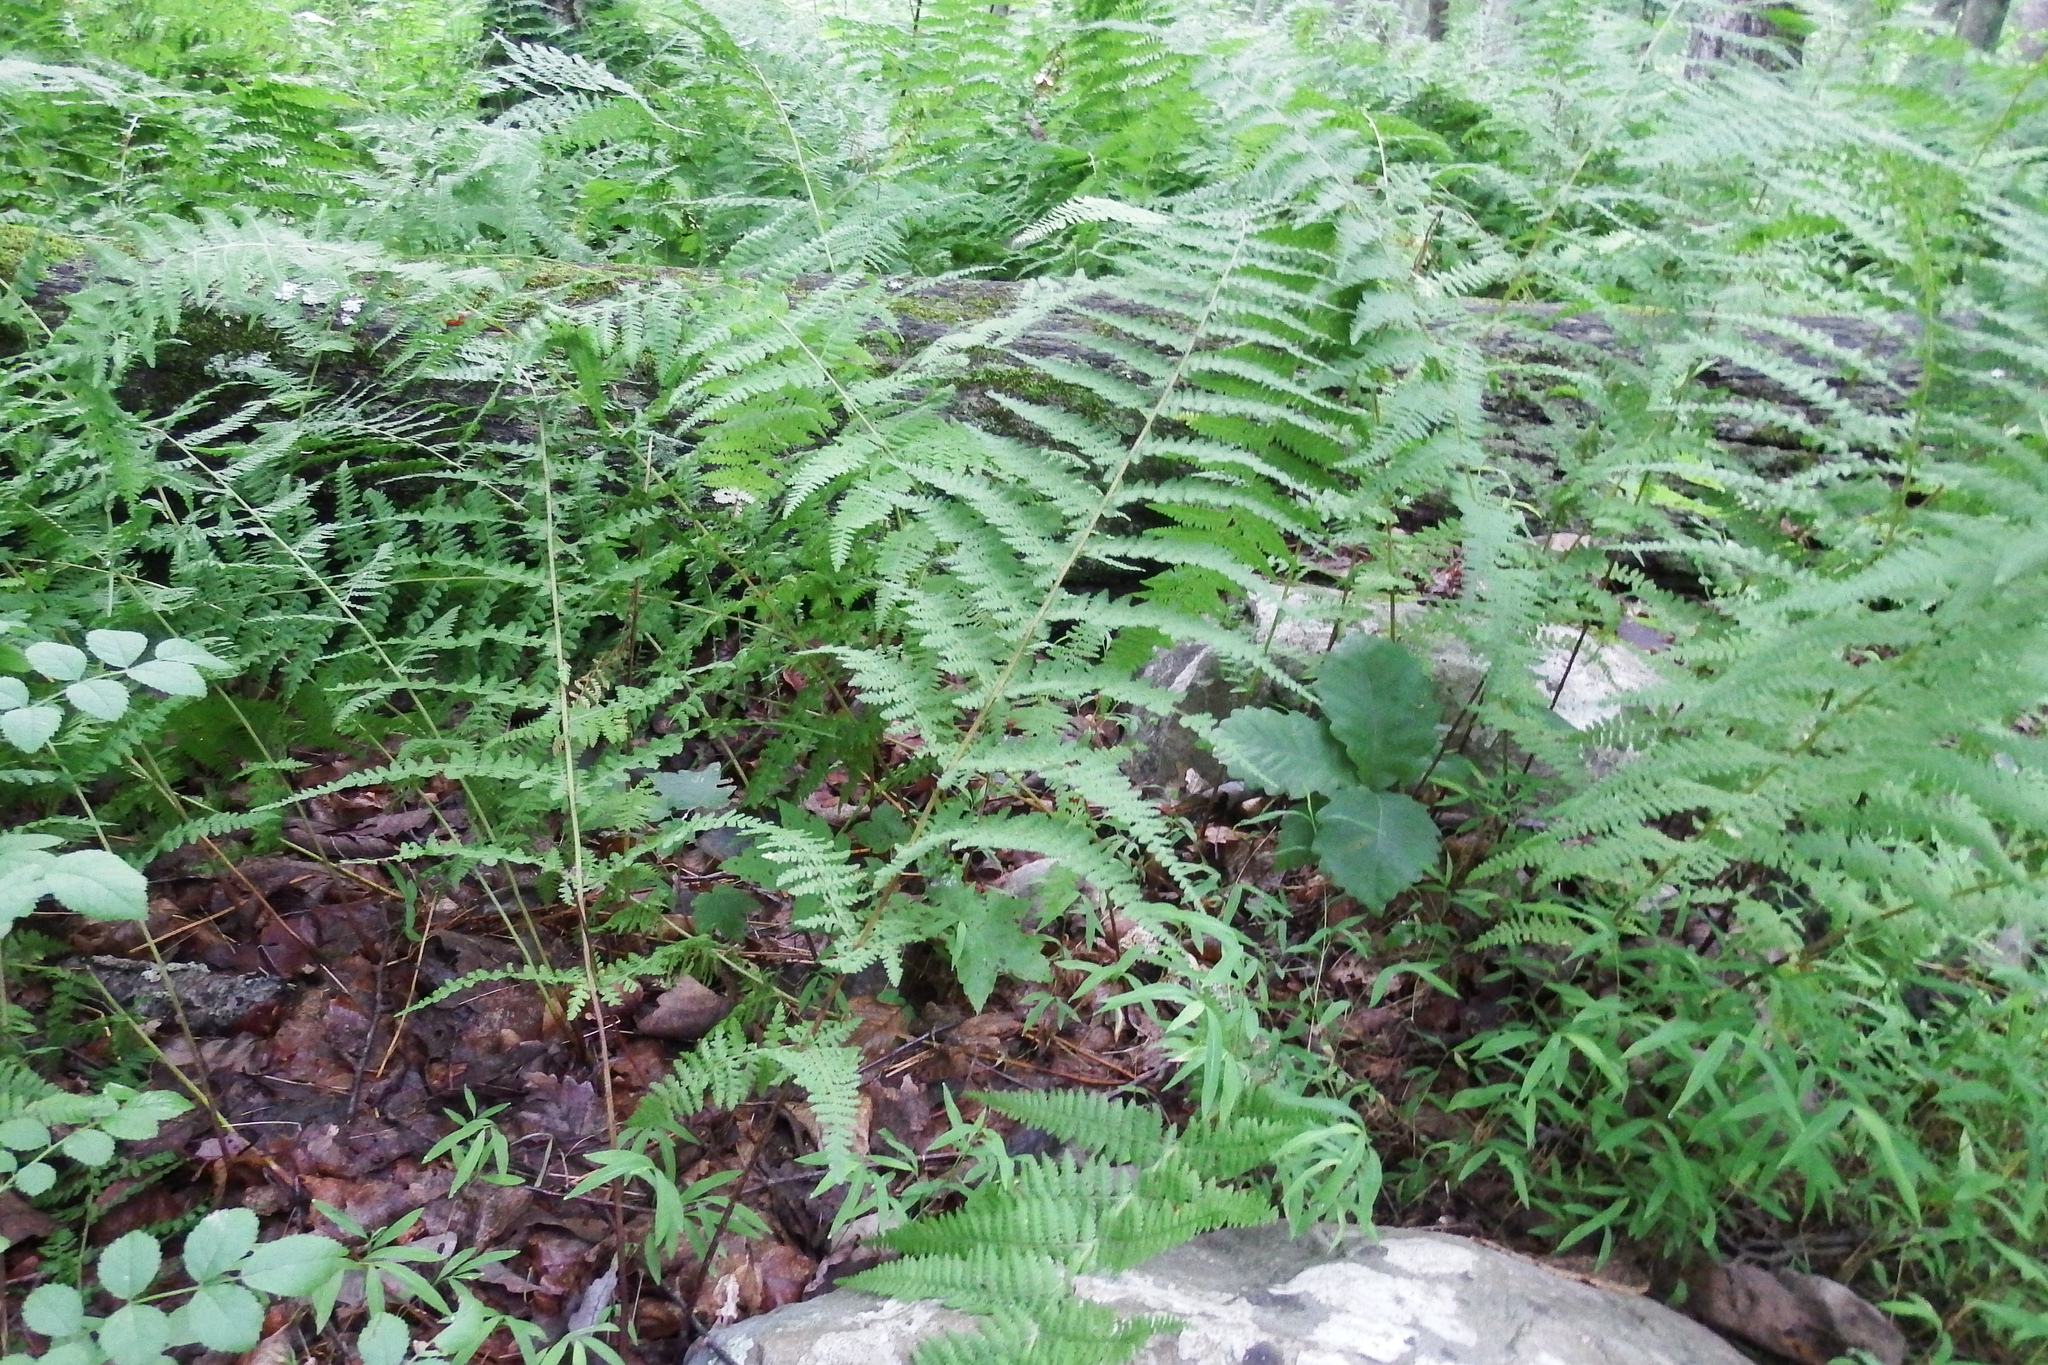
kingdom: Plantae
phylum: Tracheophyta
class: Polypodiopsida
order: Polypodiales
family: Dennstaedtiaceae
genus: Sitobolium
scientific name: Sitobolium punctilobum
